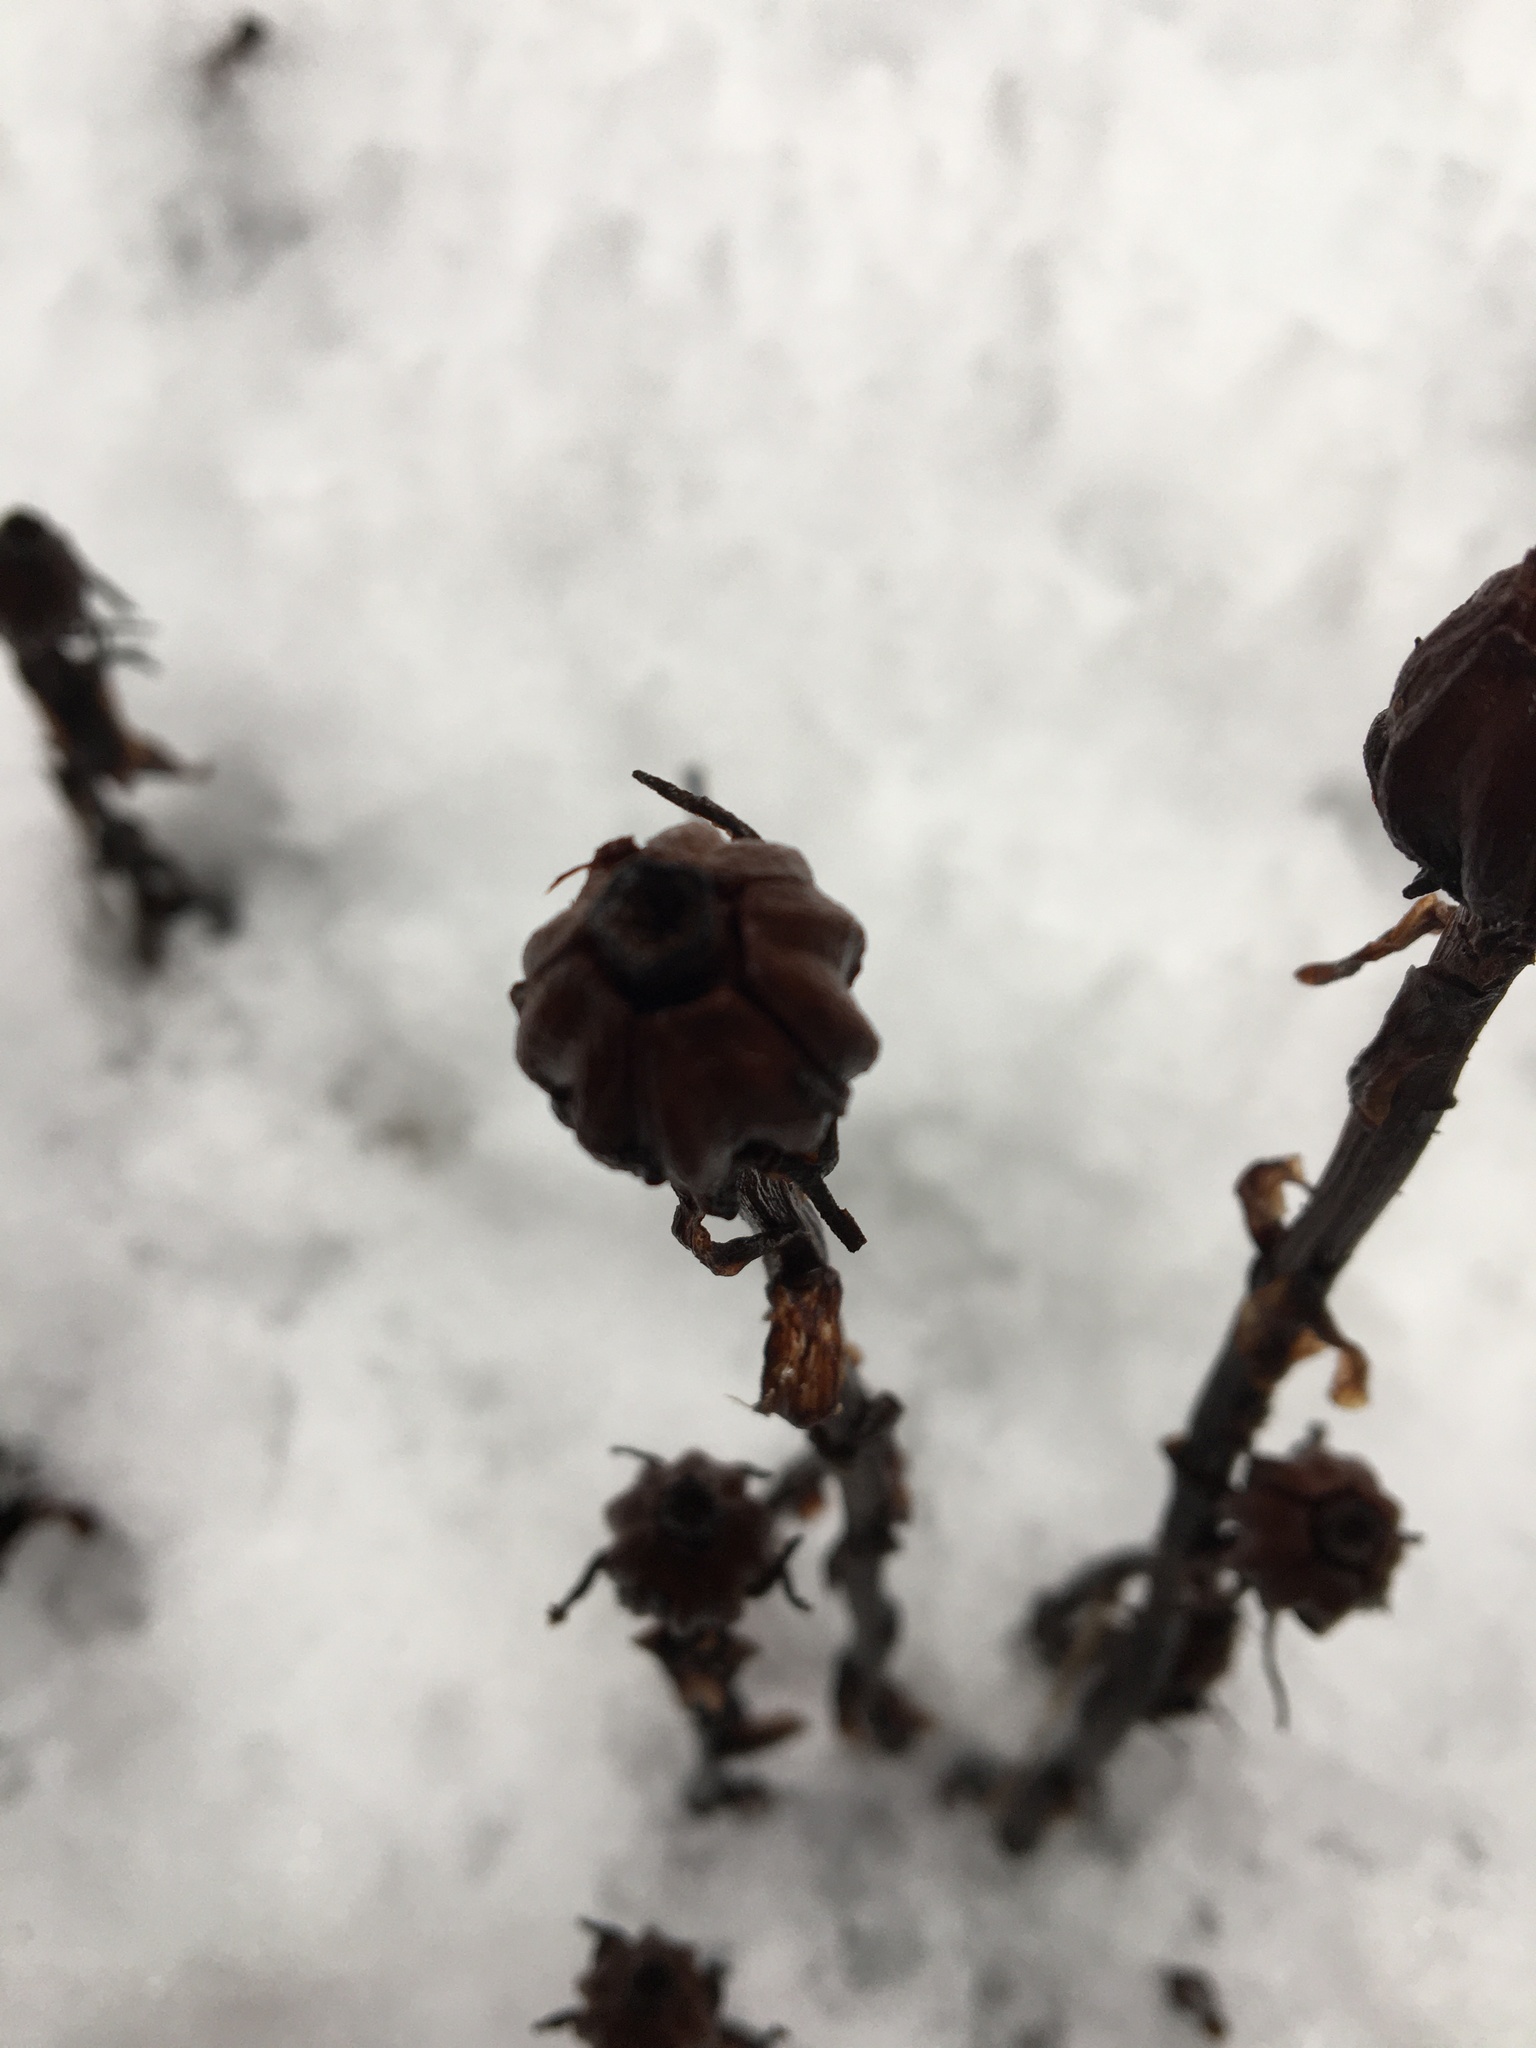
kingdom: Plantae
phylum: Tracheophyta
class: Magnoliopsida
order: Ericales
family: Ericaceae
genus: Monotropa
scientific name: Monotropa uniflora
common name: Convulsion root
